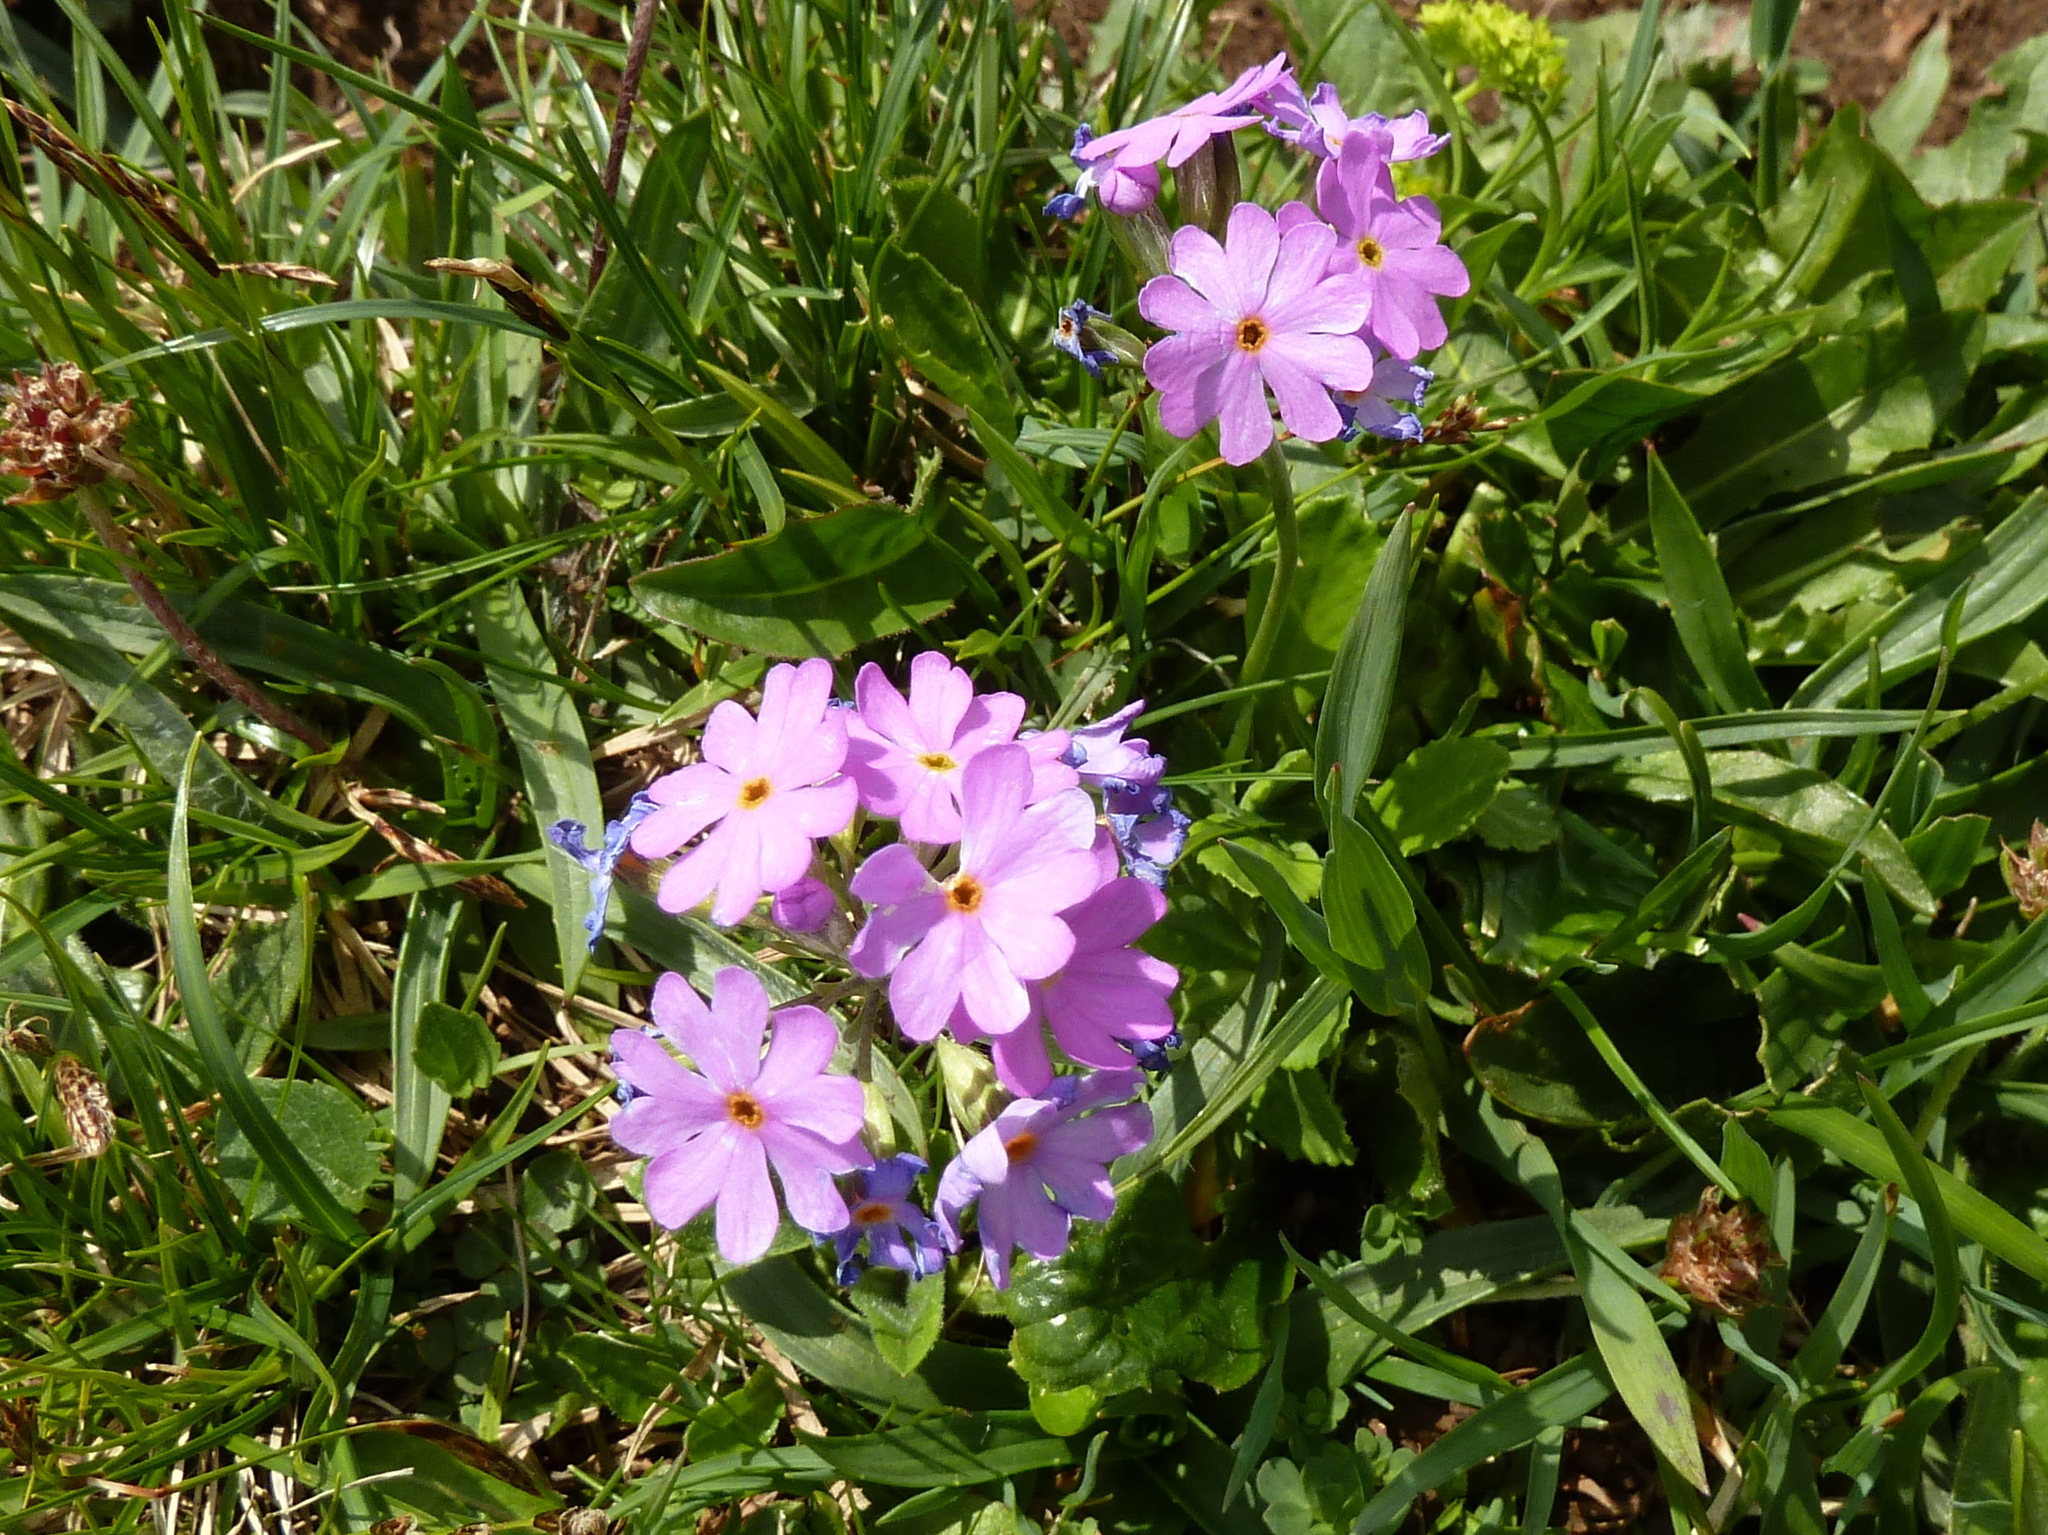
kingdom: Plantae
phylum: Tracheophyta
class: Magnoliopsida
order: Ericales
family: Primulaceae
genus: Primula
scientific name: Primula farinosa
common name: Bird's-eye primrose
